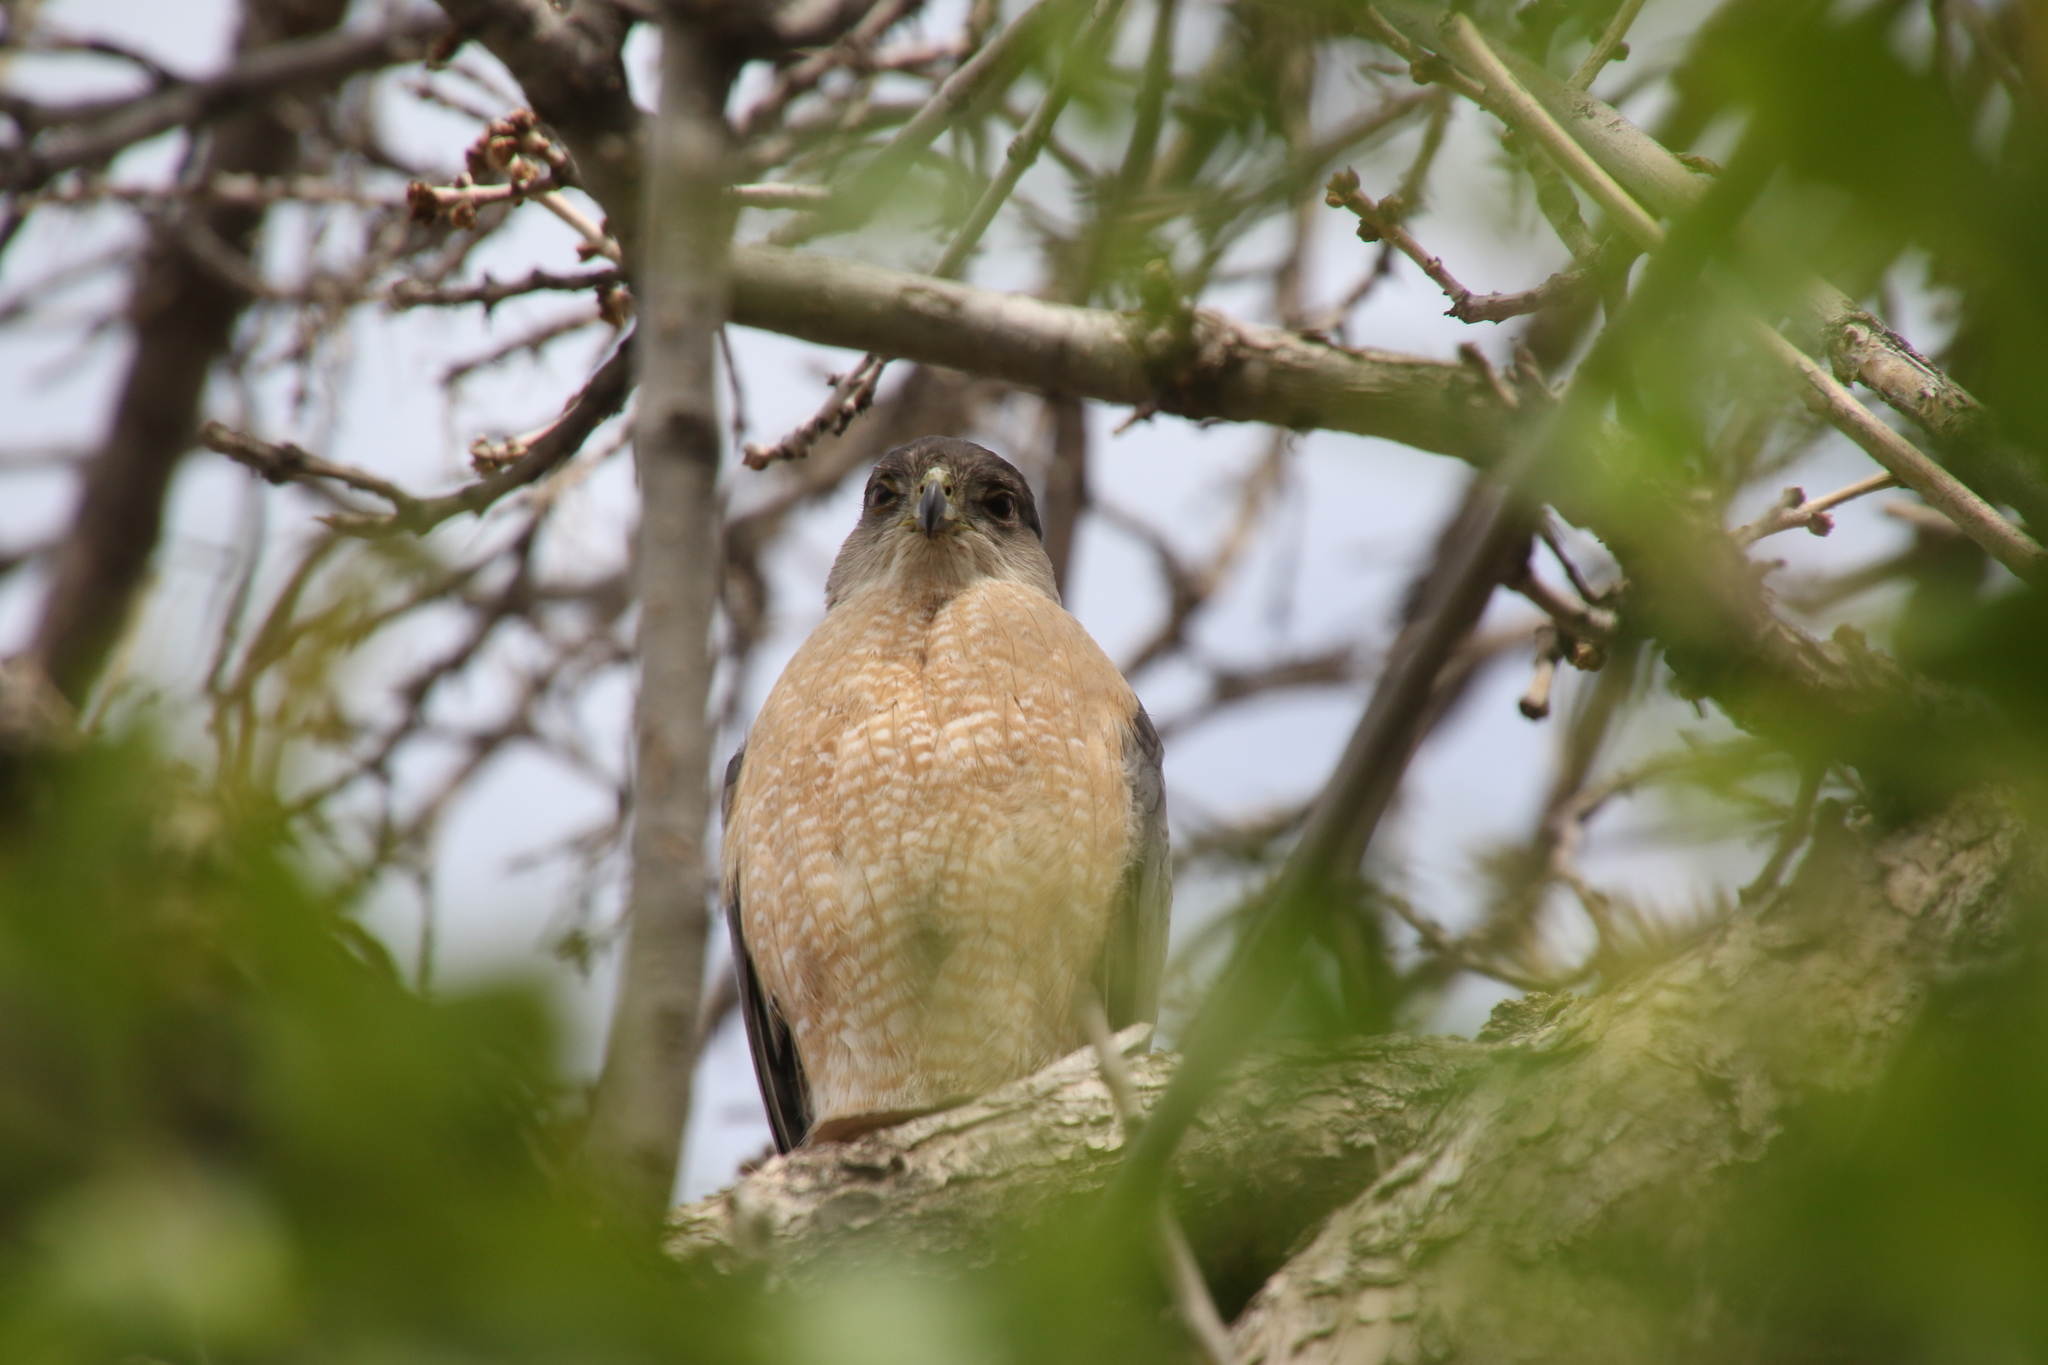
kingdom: Animalia
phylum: Chordata
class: Aves
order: Accipitriformes
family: Accipitridae
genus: Accipiter
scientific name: Accipiter cooperii
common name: Cooper's hawk
